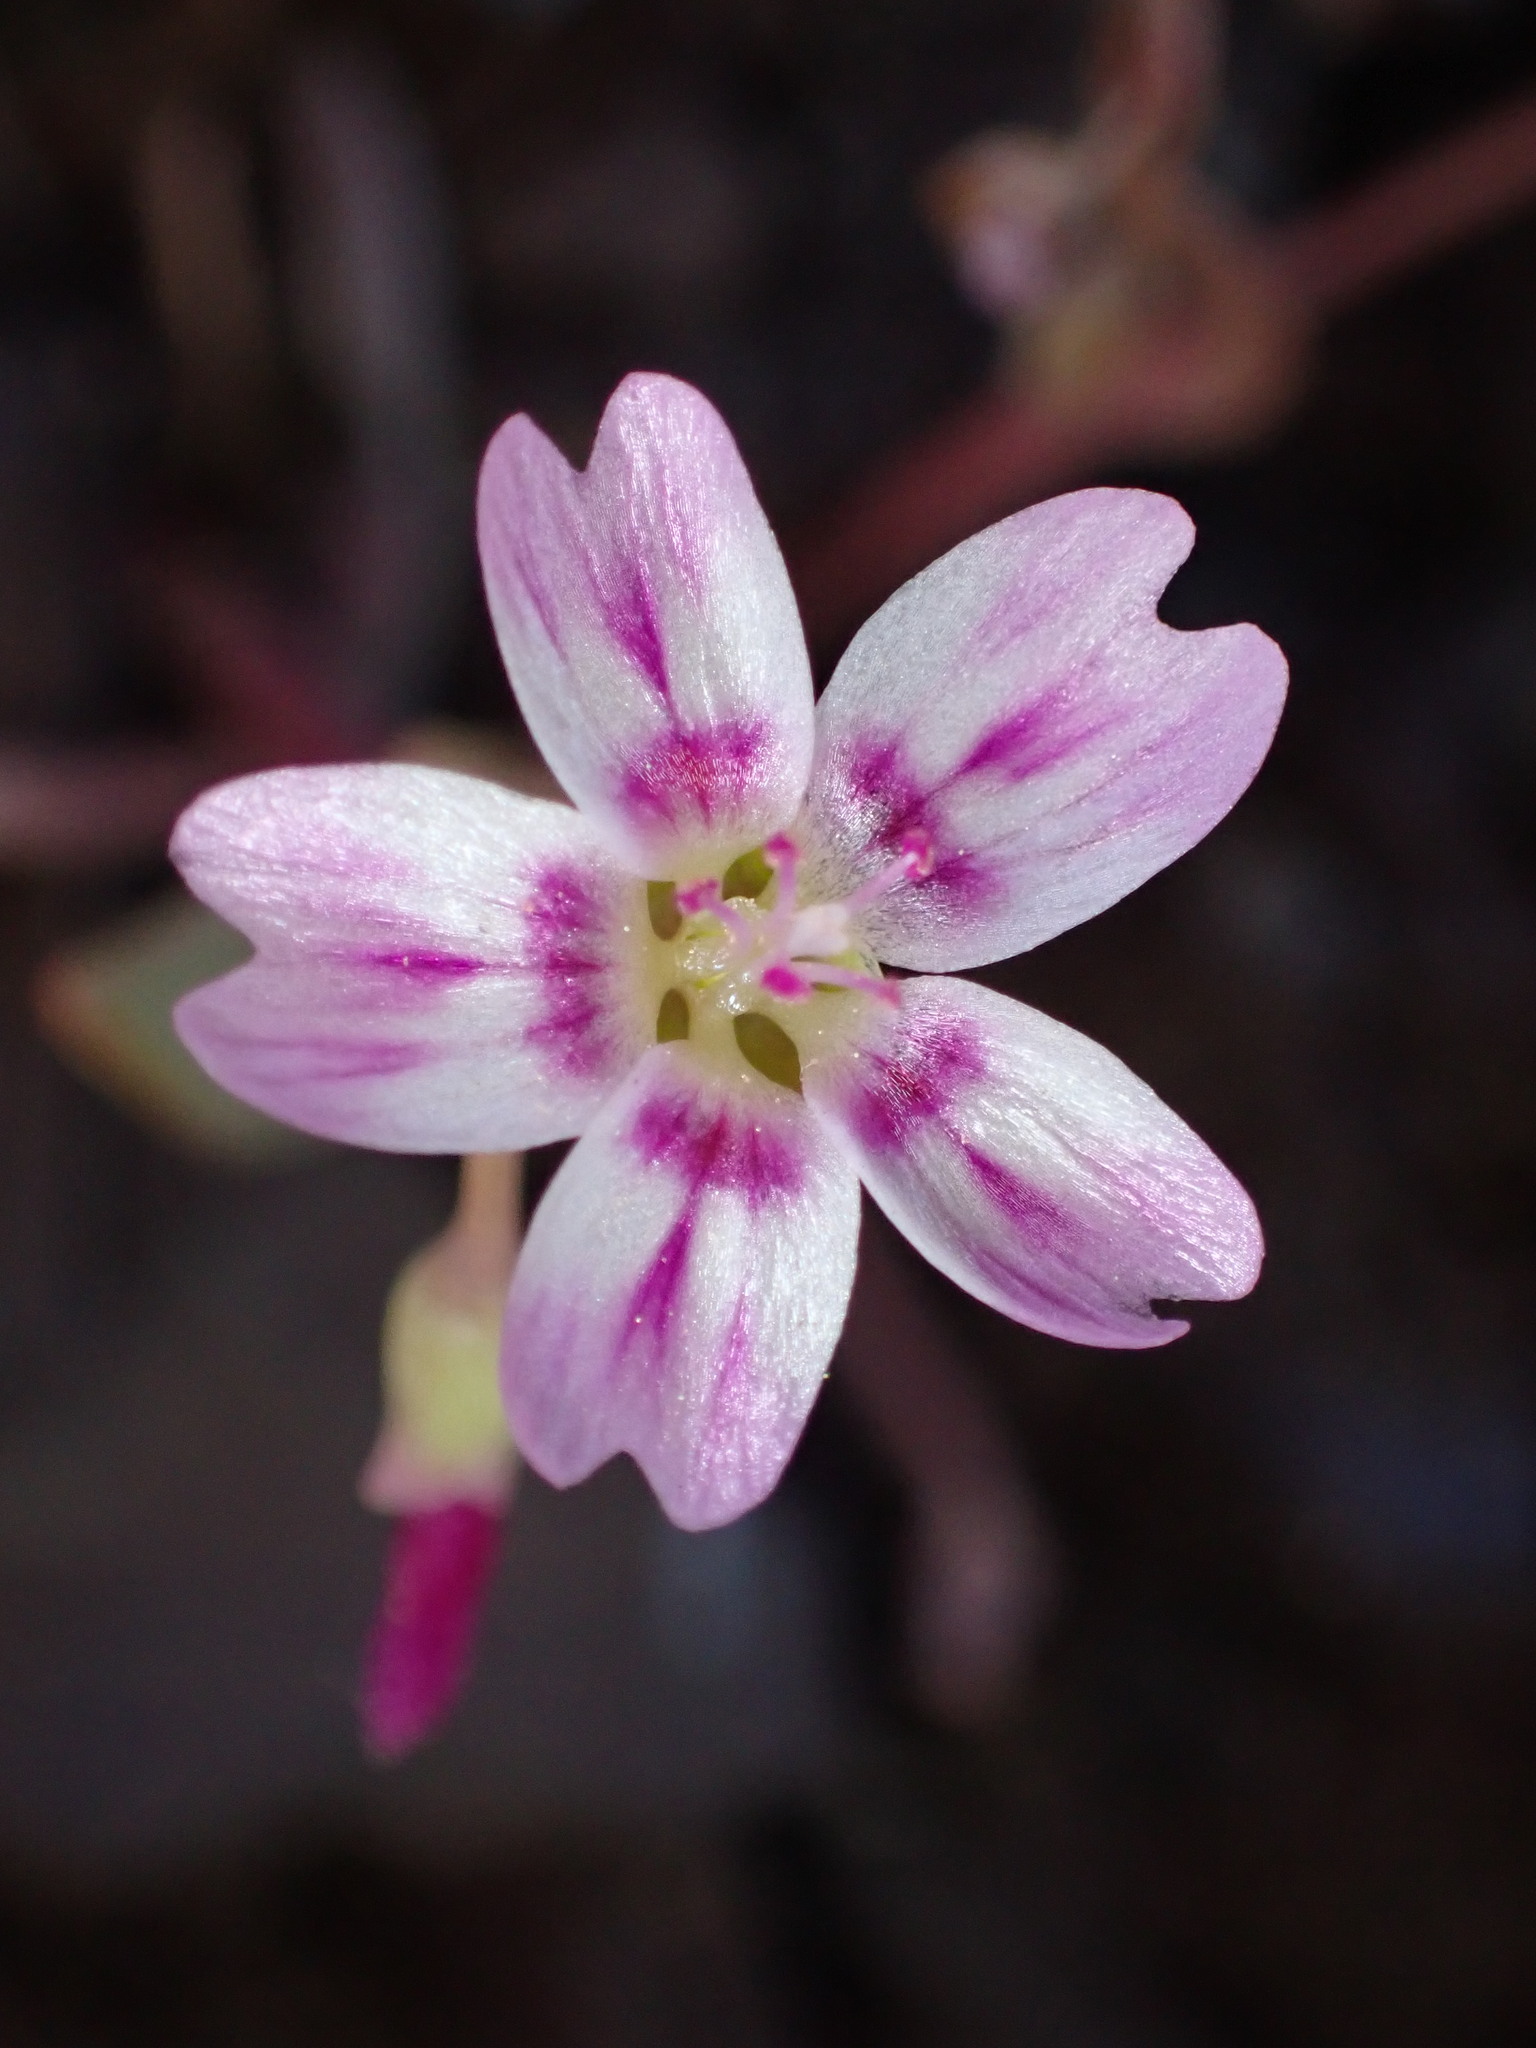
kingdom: Plantae
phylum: Tracheophyta
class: Magnoliopsida
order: Caryophyllales
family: Montiaceae
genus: Claytonia
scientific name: Claytonia gypsophiloides
